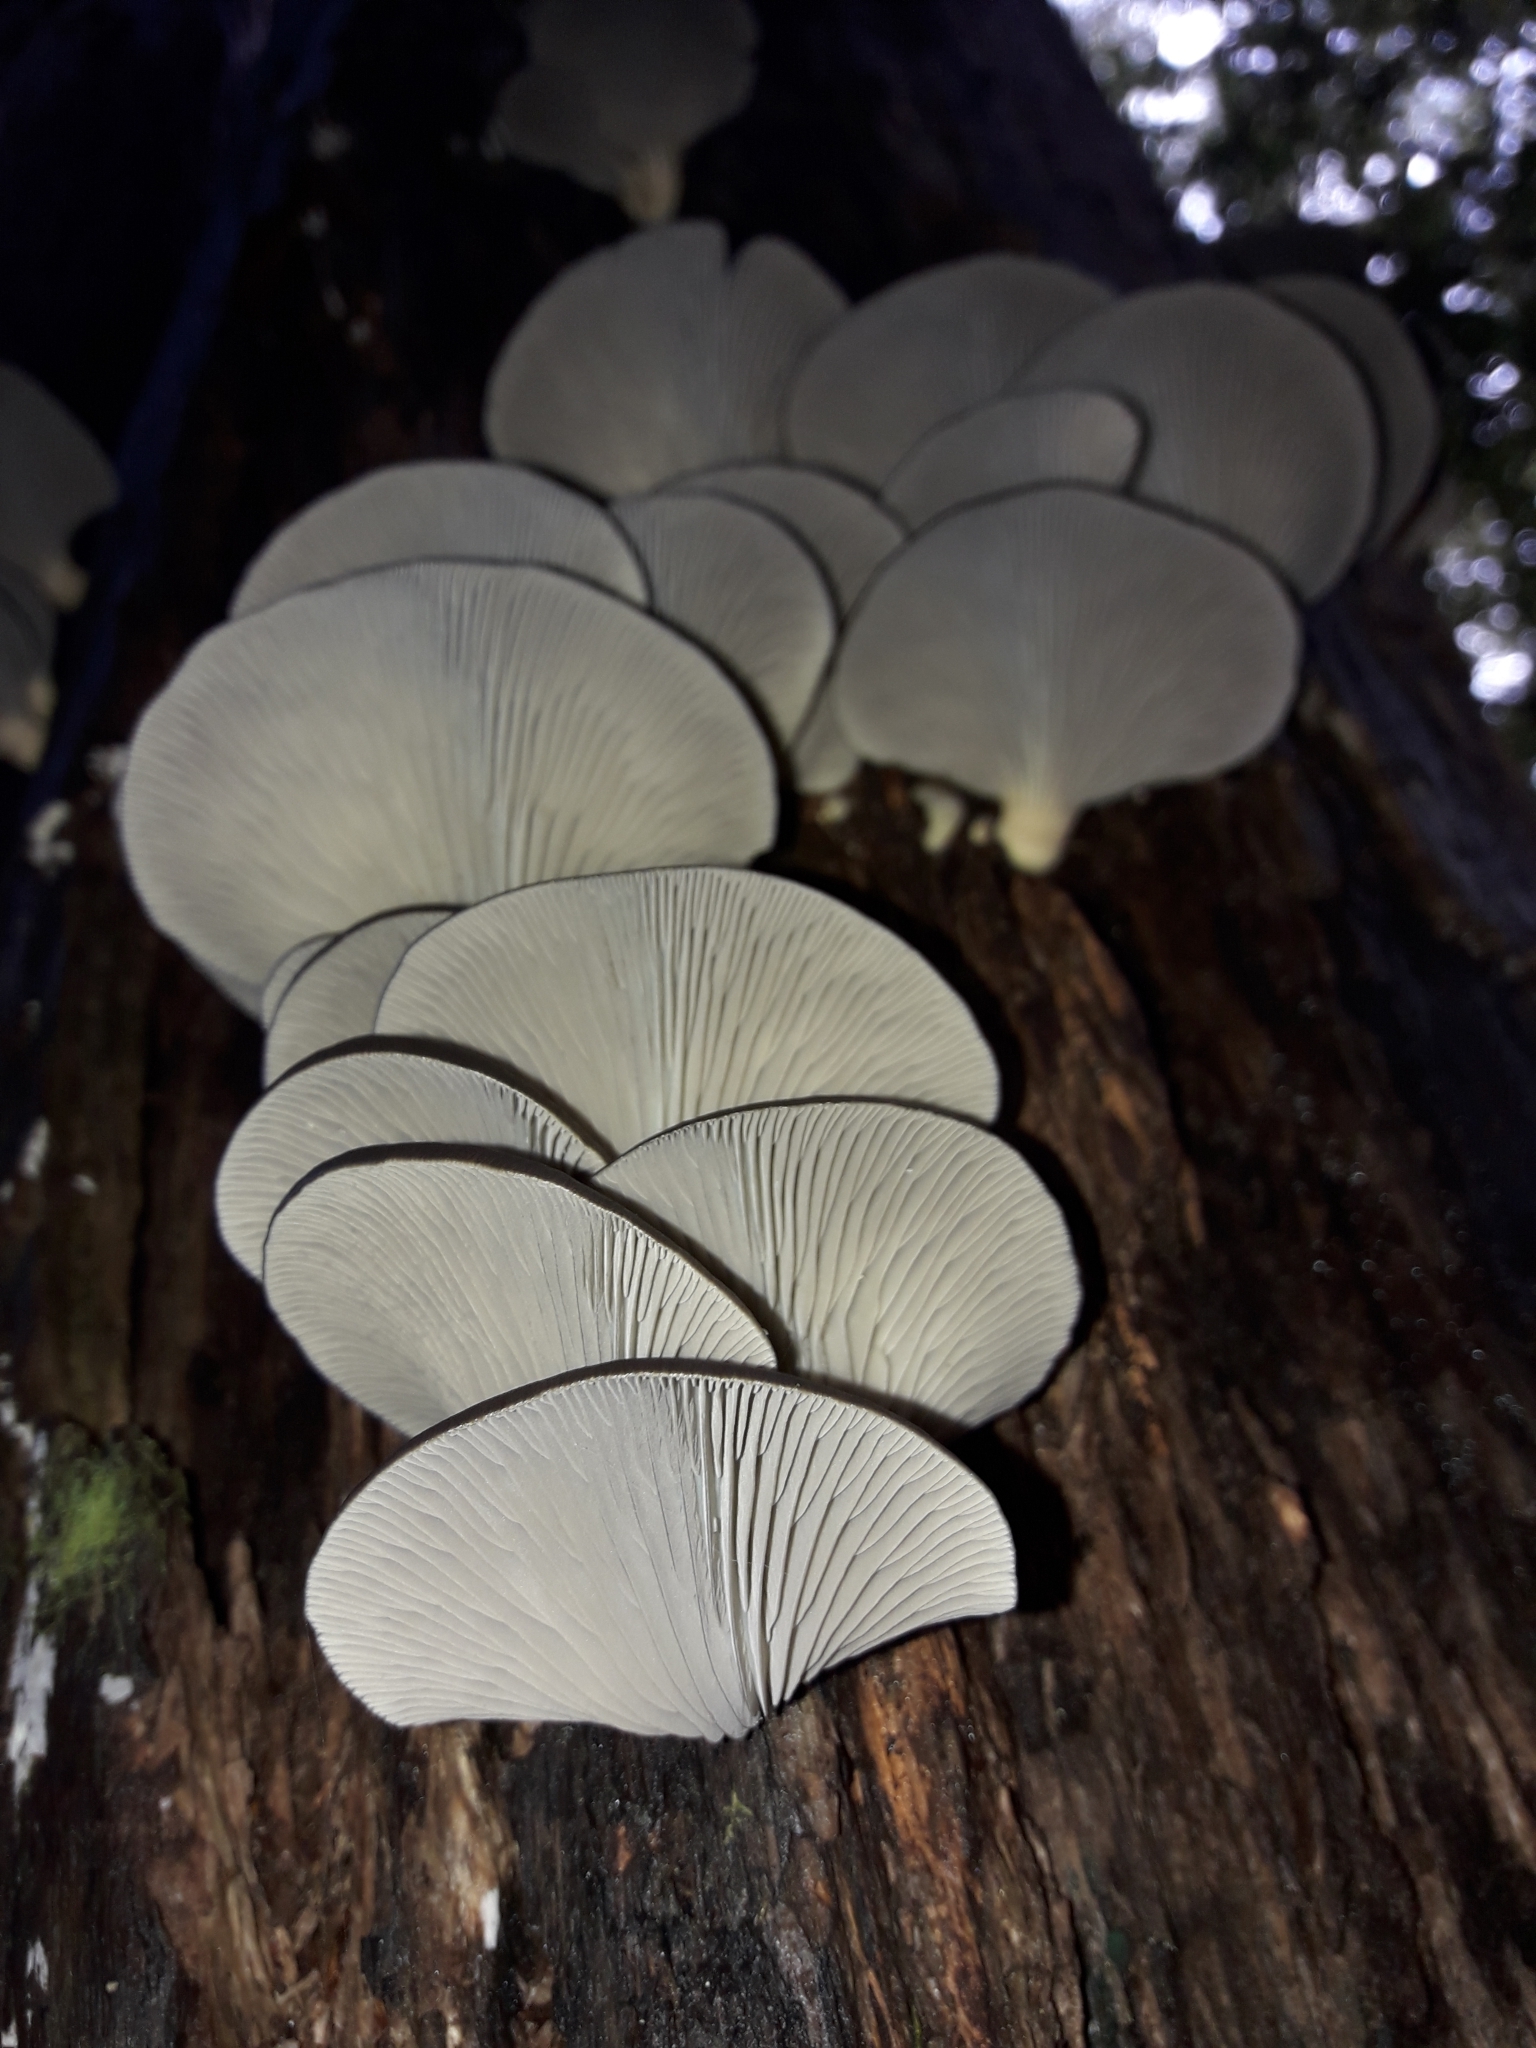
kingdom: Fungi
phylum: Basidiomycota
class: Agaricomycetes
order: Agaricales
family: Pleurotaceae
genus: Pleurotus
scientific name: Pleurotus purpureo-olivaceus
